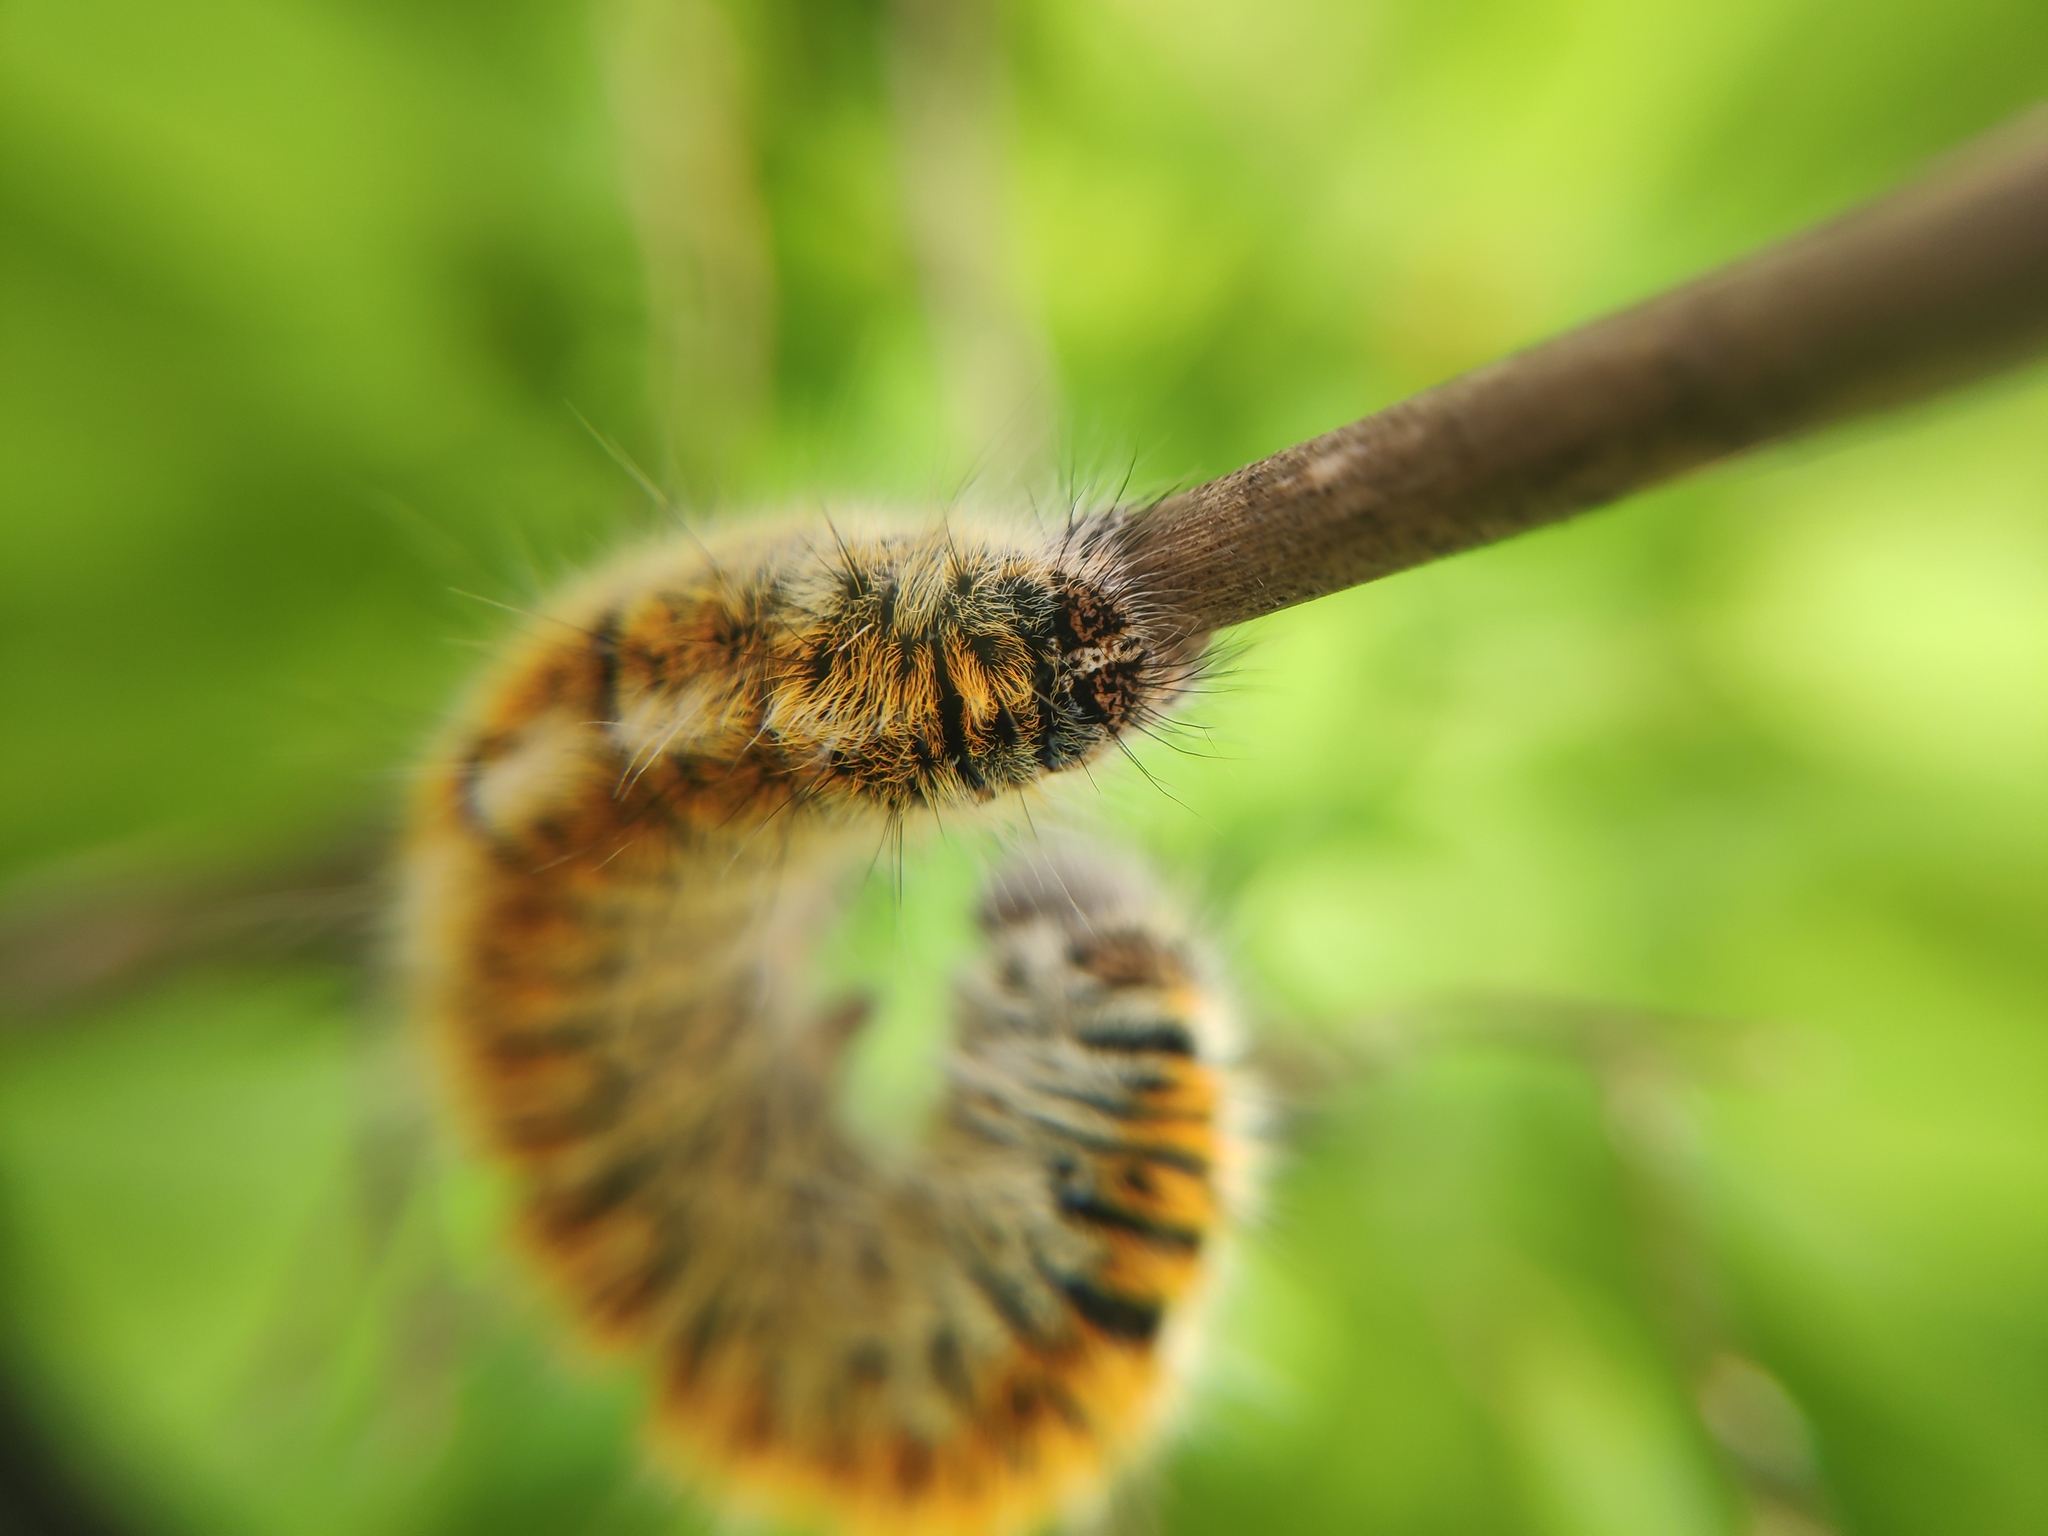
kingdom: Animalia
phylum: Arthropoda
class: Insecta
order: Lepidoptera
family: Lasiocampidae
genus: Lasiocampa
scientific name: Lasiocampa trifolii
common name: Grass eggar
